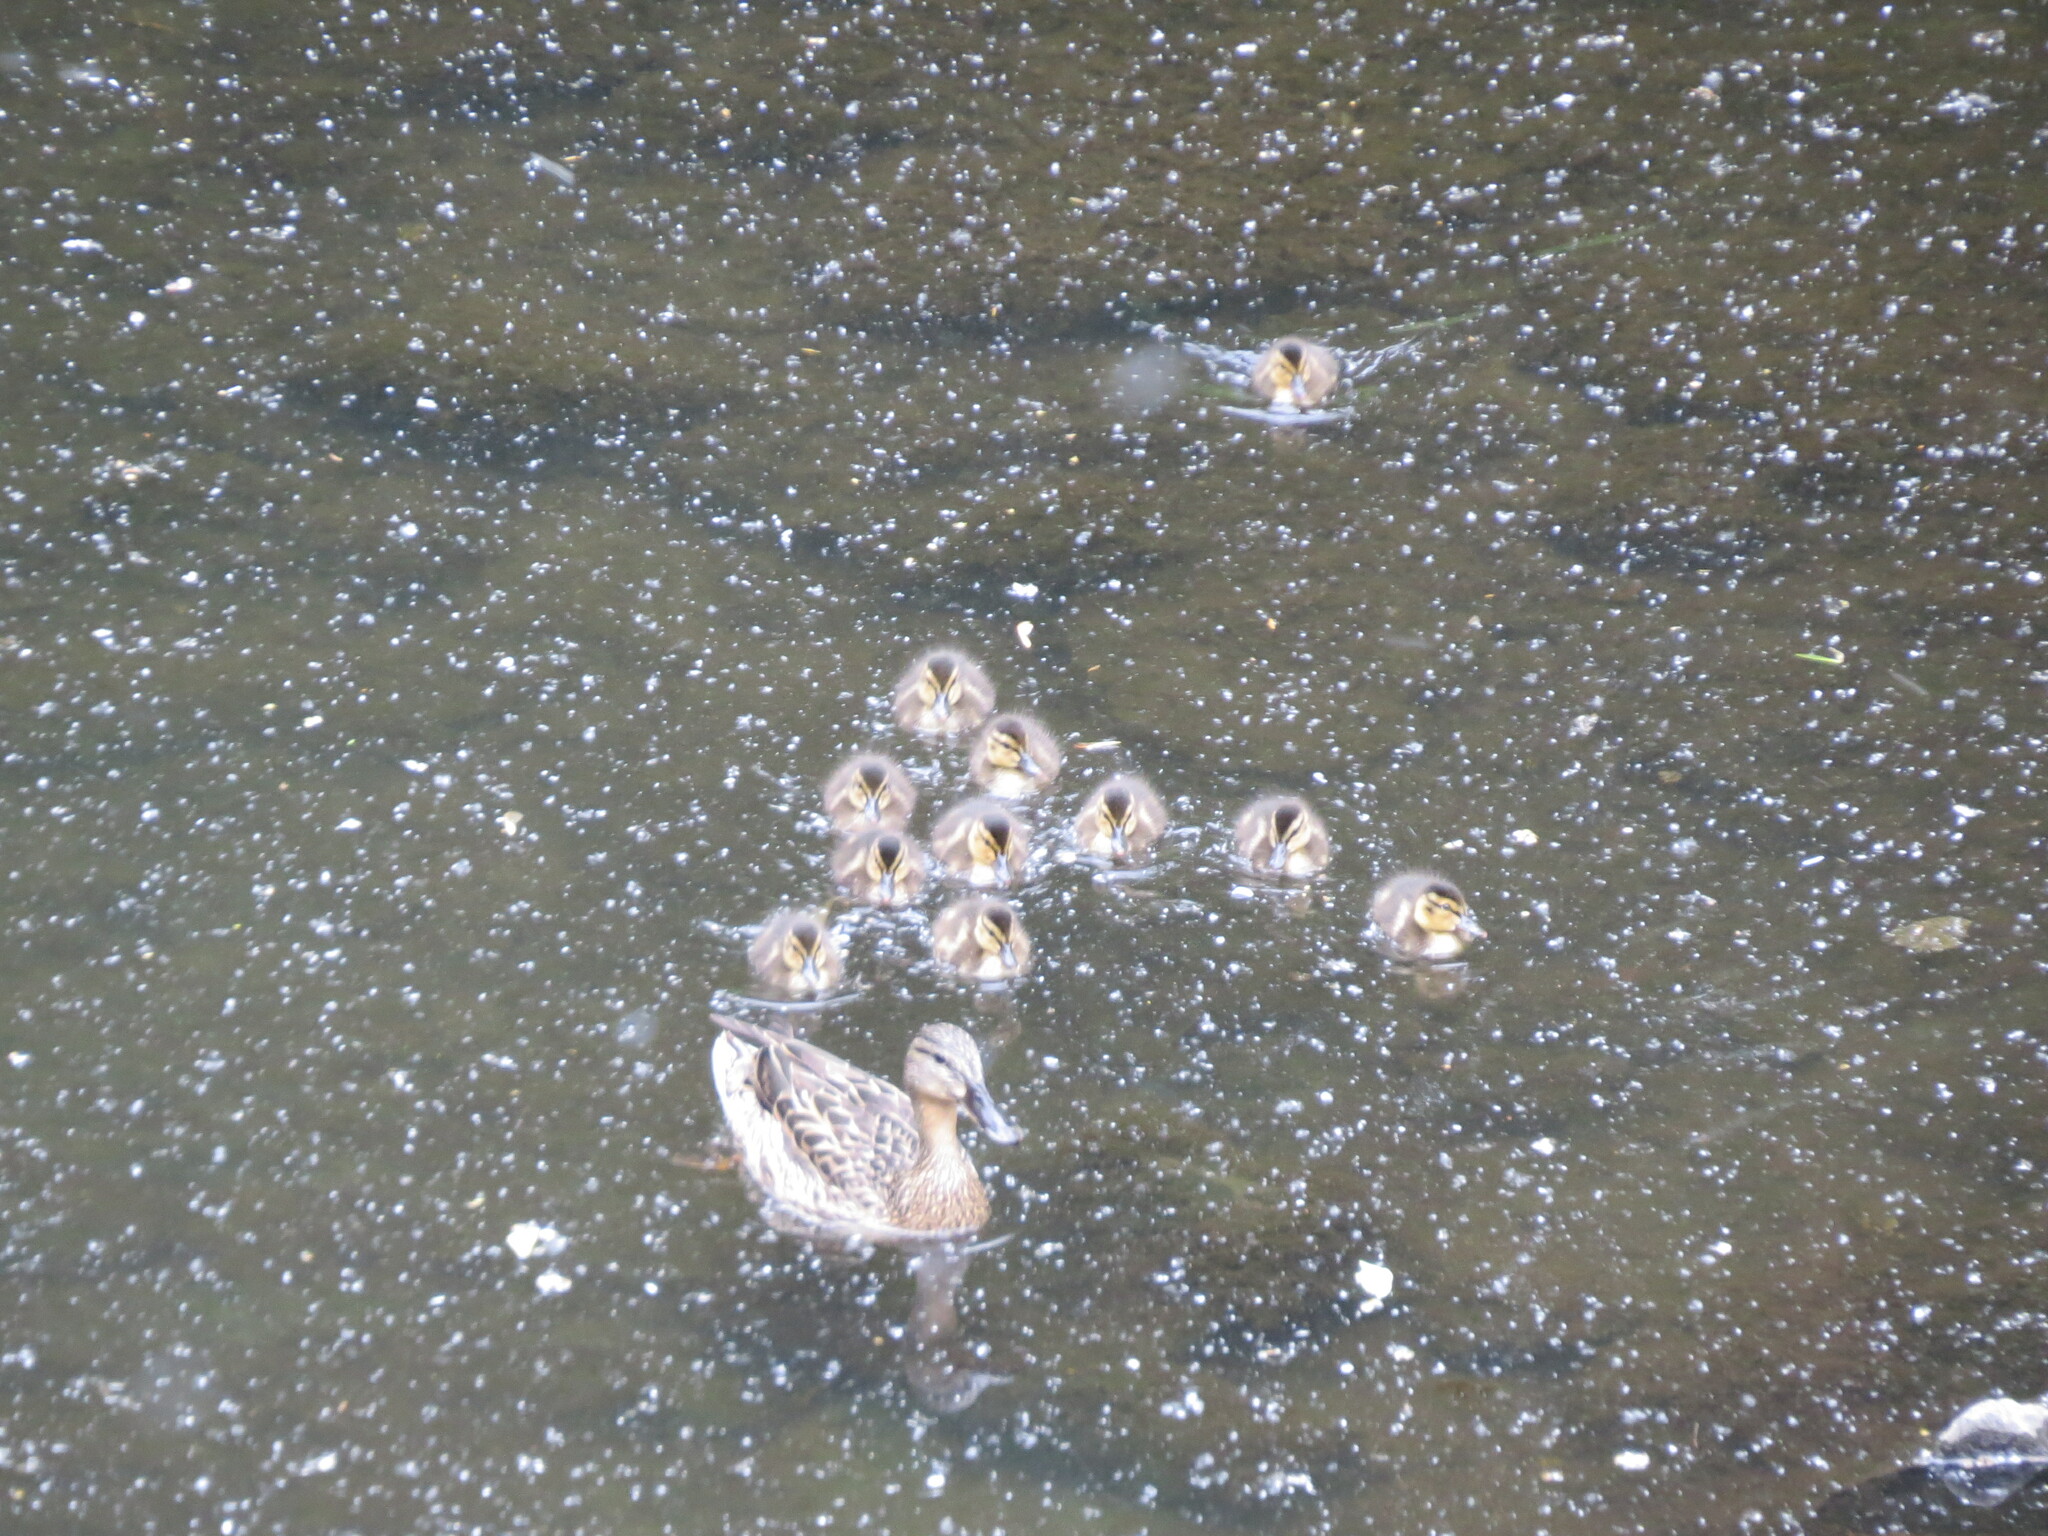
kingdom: Animalia
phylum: Chordata
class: Aves
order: Anseriformes
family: Anatidae
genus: Anas
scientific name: Anas platyrhynchos
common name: Mallard
